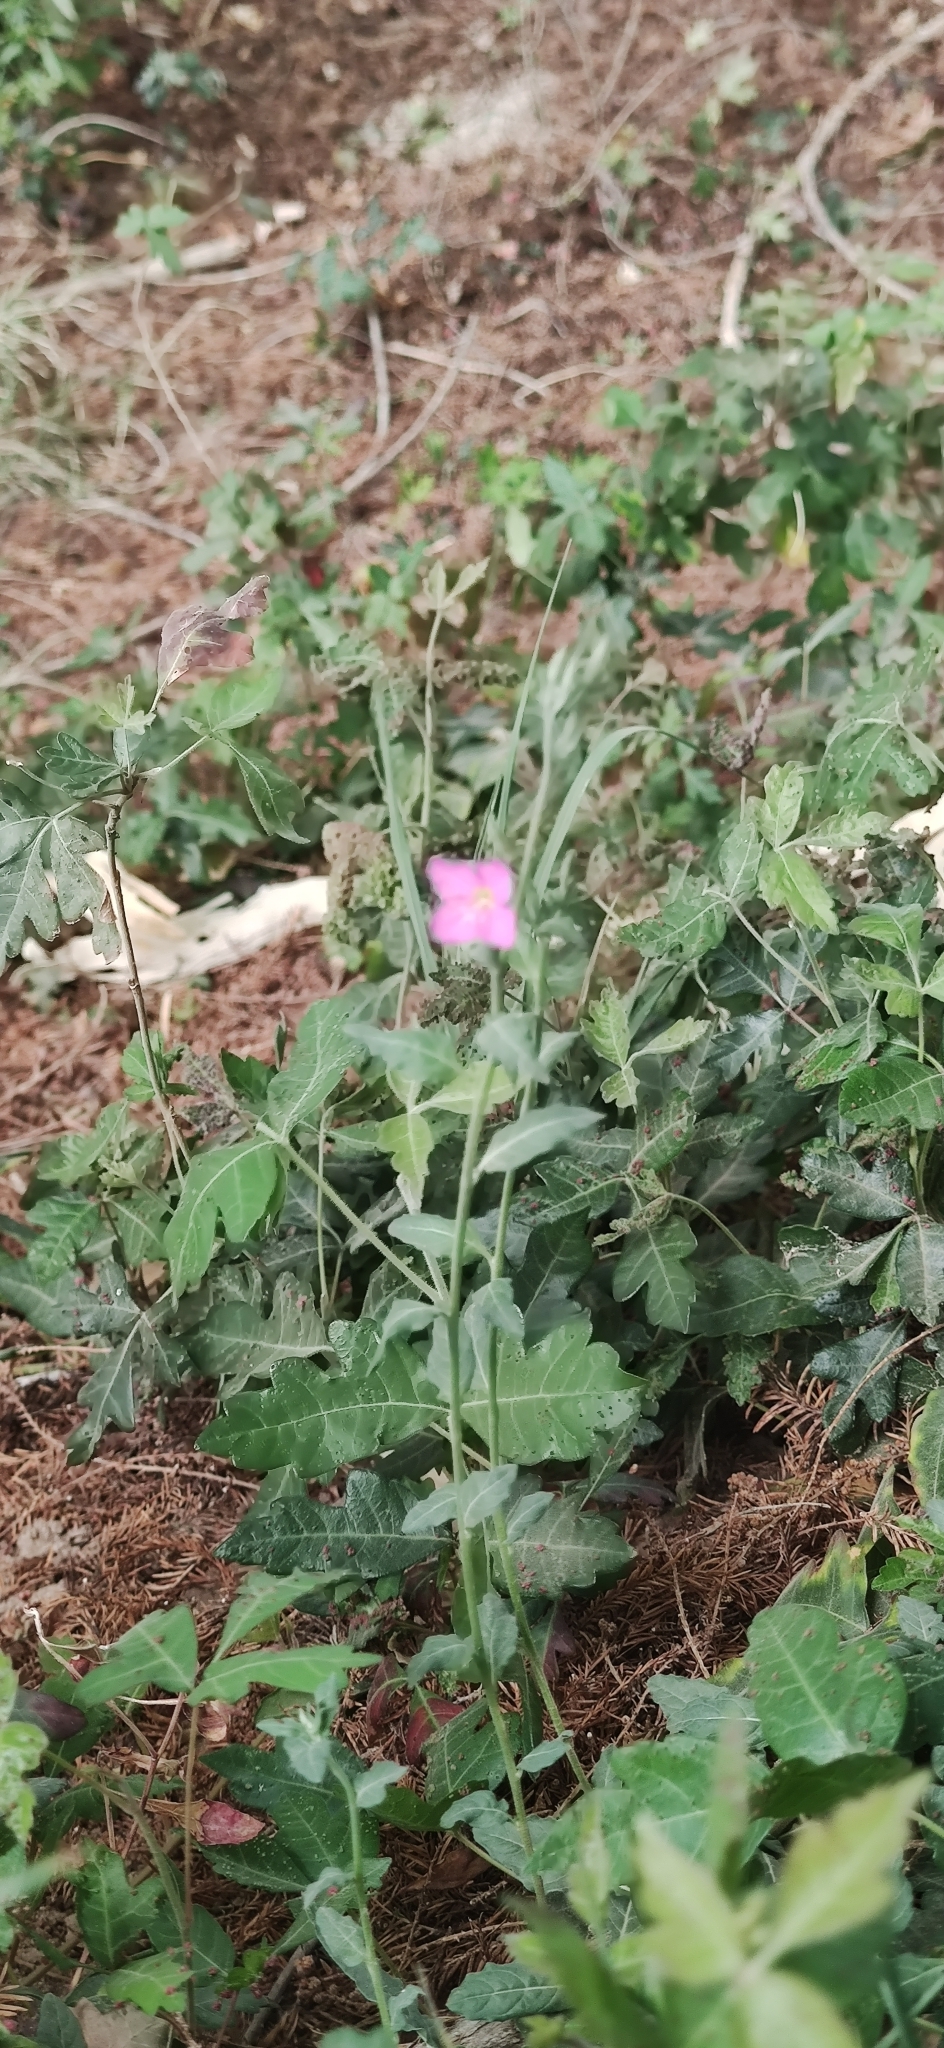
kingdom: Plantae
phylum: Tracheophyta
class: Magnoliopsida
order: Myrtales
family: Onagraceae
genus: Oenothera
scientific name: Oenothera rosea
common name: Rosy evening-primrose
